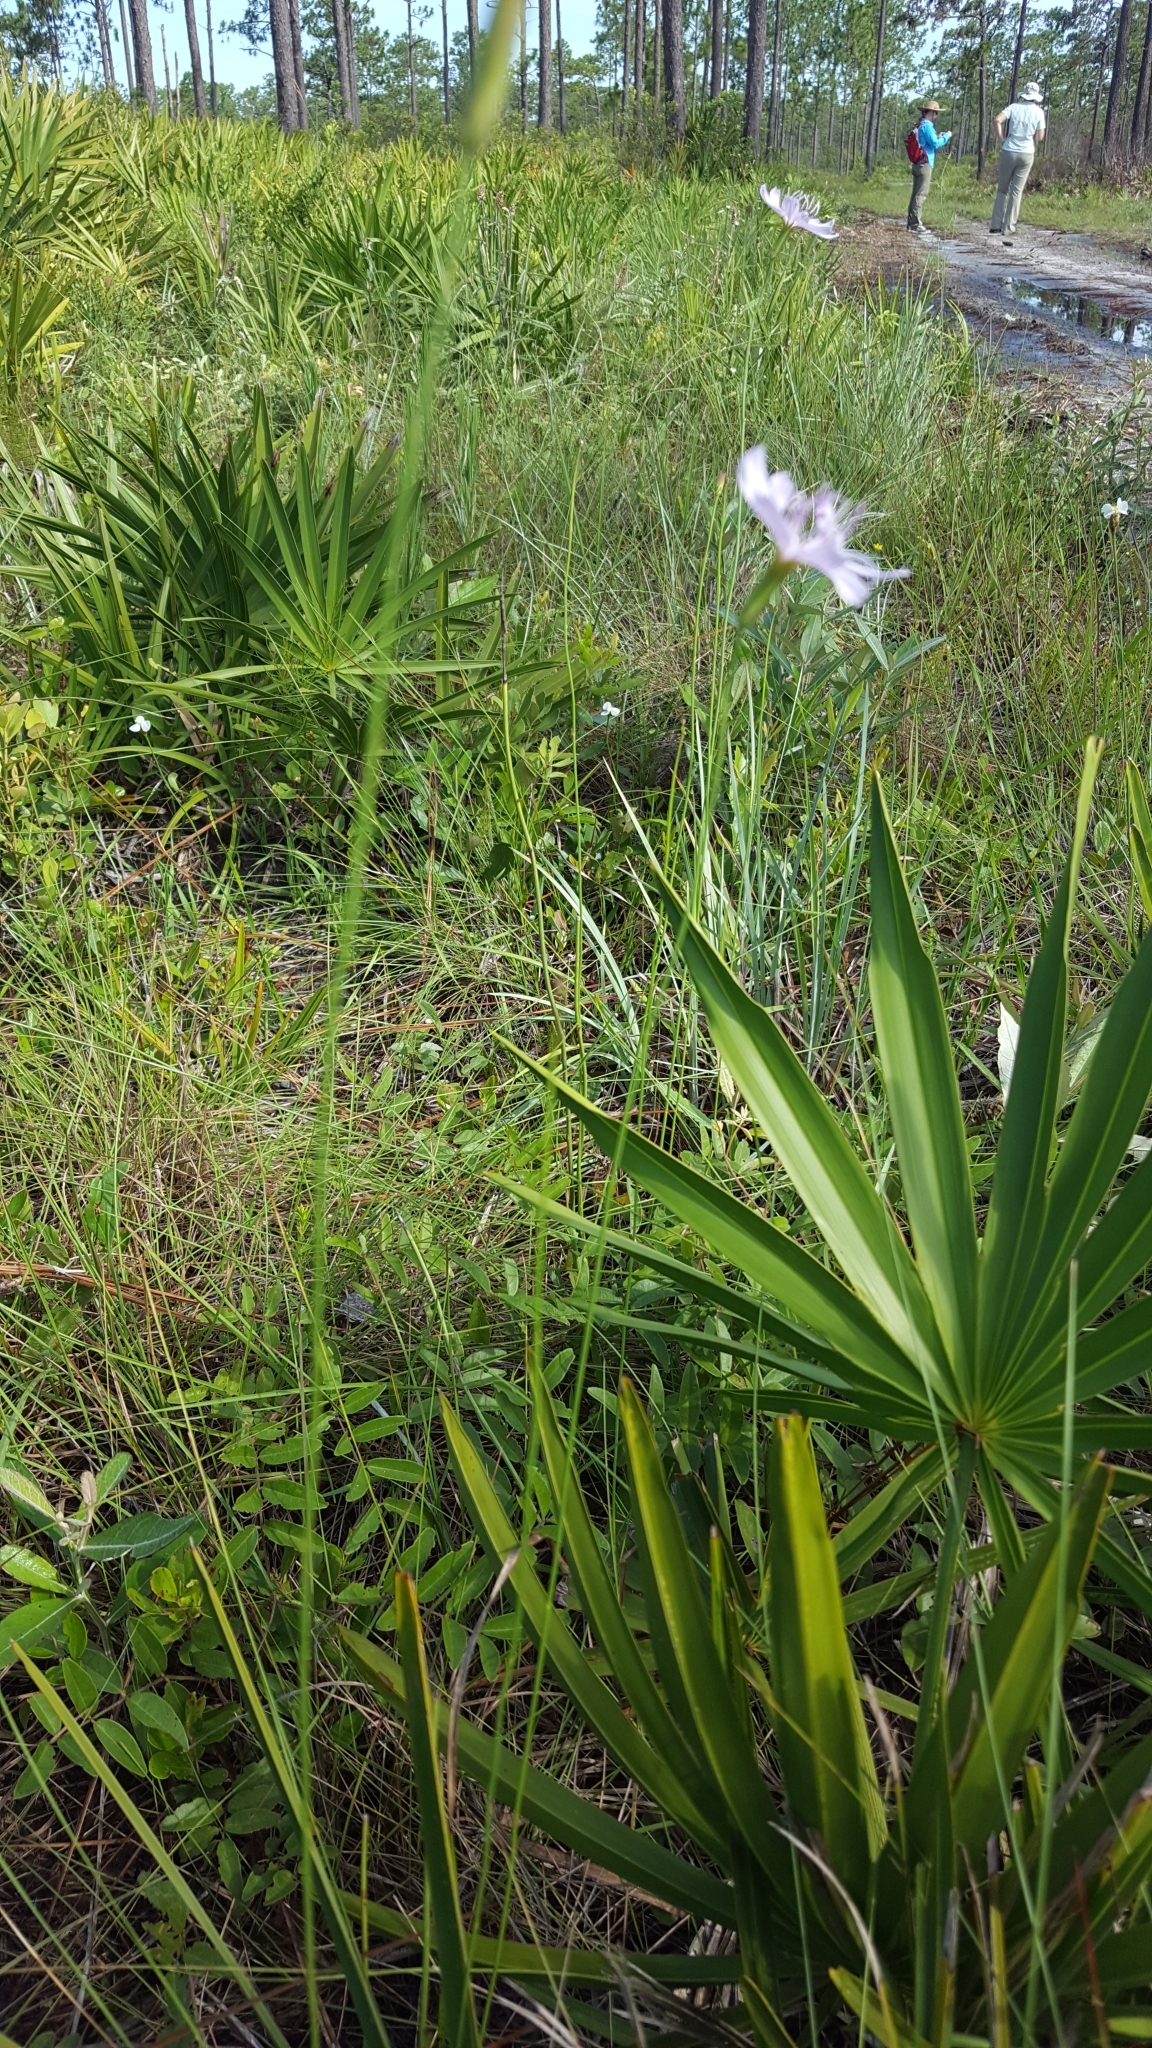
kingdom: Plantae
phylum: Tracheophyta
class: Magnoliopsida
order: Asterales
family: Asteraceae
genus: Lygodesmia
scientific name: Lygodesmia aphylla
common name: Rose-rush
